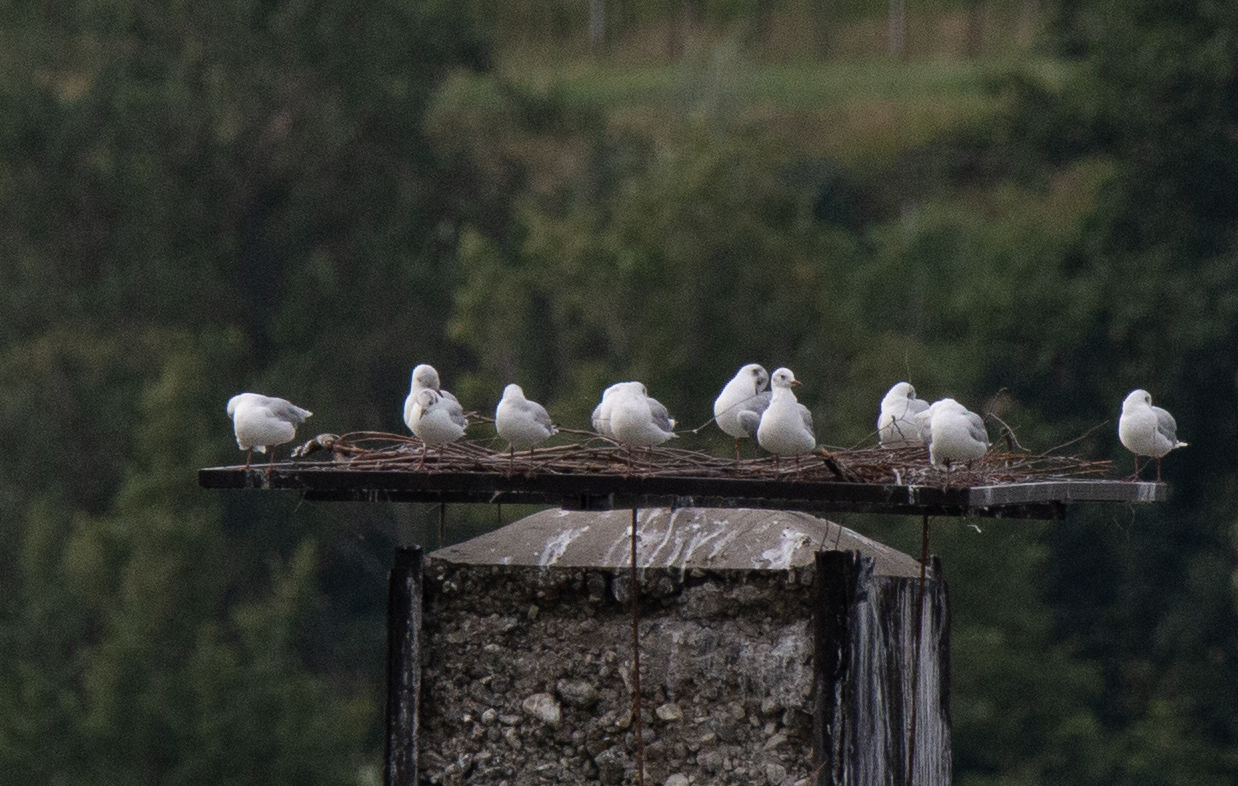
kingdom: Animalia
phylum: Chordata
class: Aves
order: Charadriiformes
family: Laridae
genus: Chroicocephalus
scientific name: Chroicocephalus ridibundus
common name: Black-headed gull
